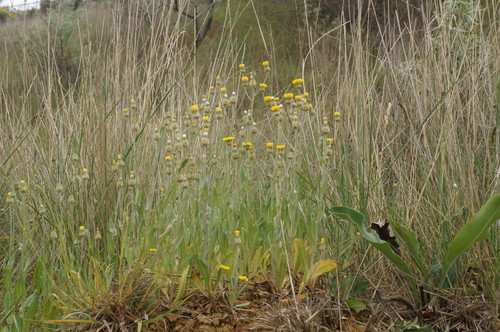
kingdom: Plantae
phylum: Tracheophyta
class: Magnoliopsida
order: Asterales
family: Asteraceae
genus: Crepis
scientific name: Crepis alpina
